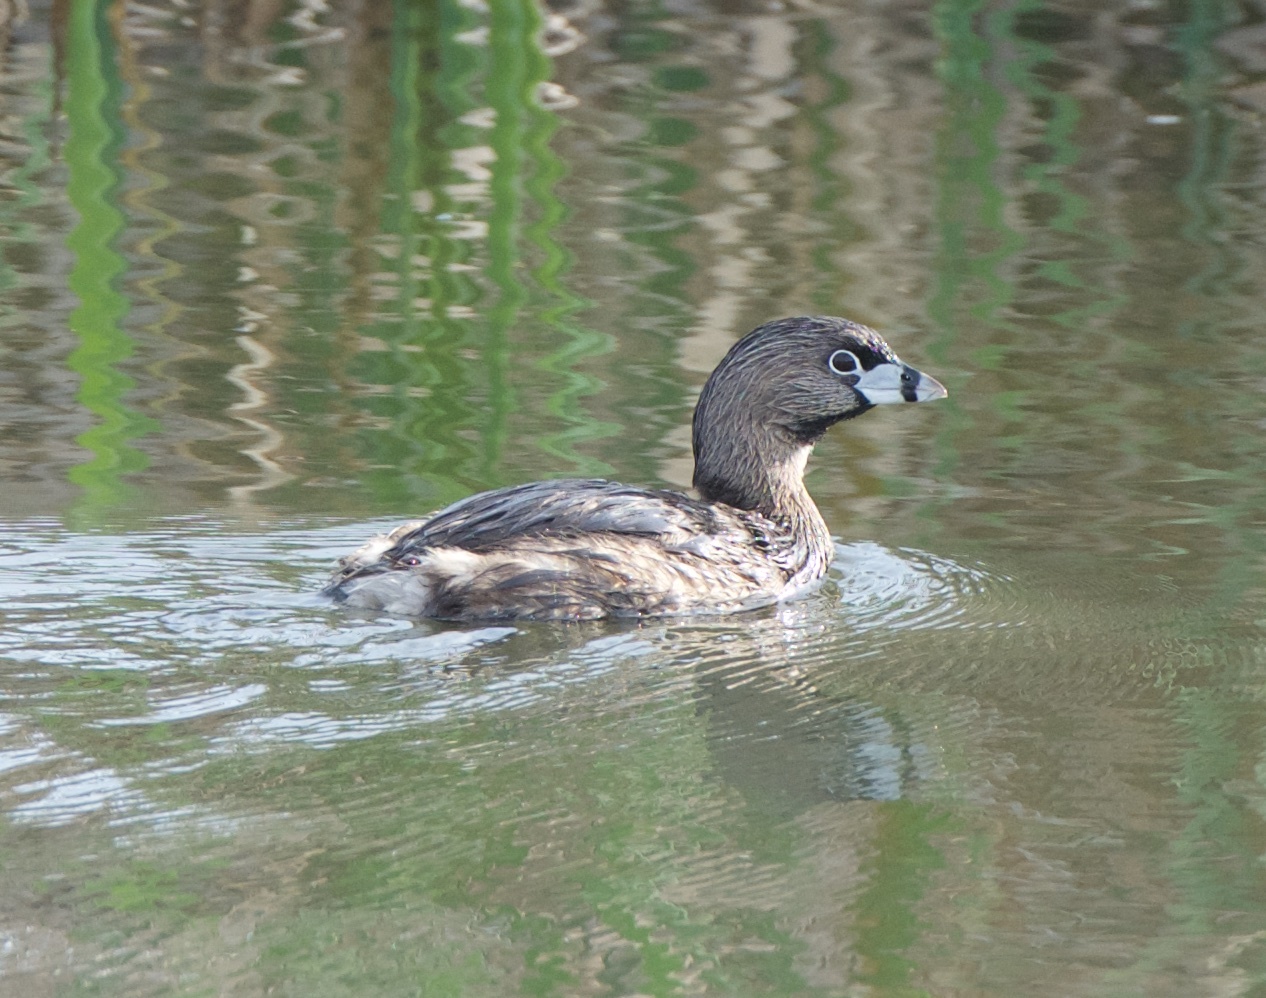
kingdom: Animalia
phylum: Chordata
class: Aves
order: Podicipediformes
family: Podicipedidae
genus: Podilymbus
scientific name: Podilymbus podiceps
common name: Pied-billed grebe
